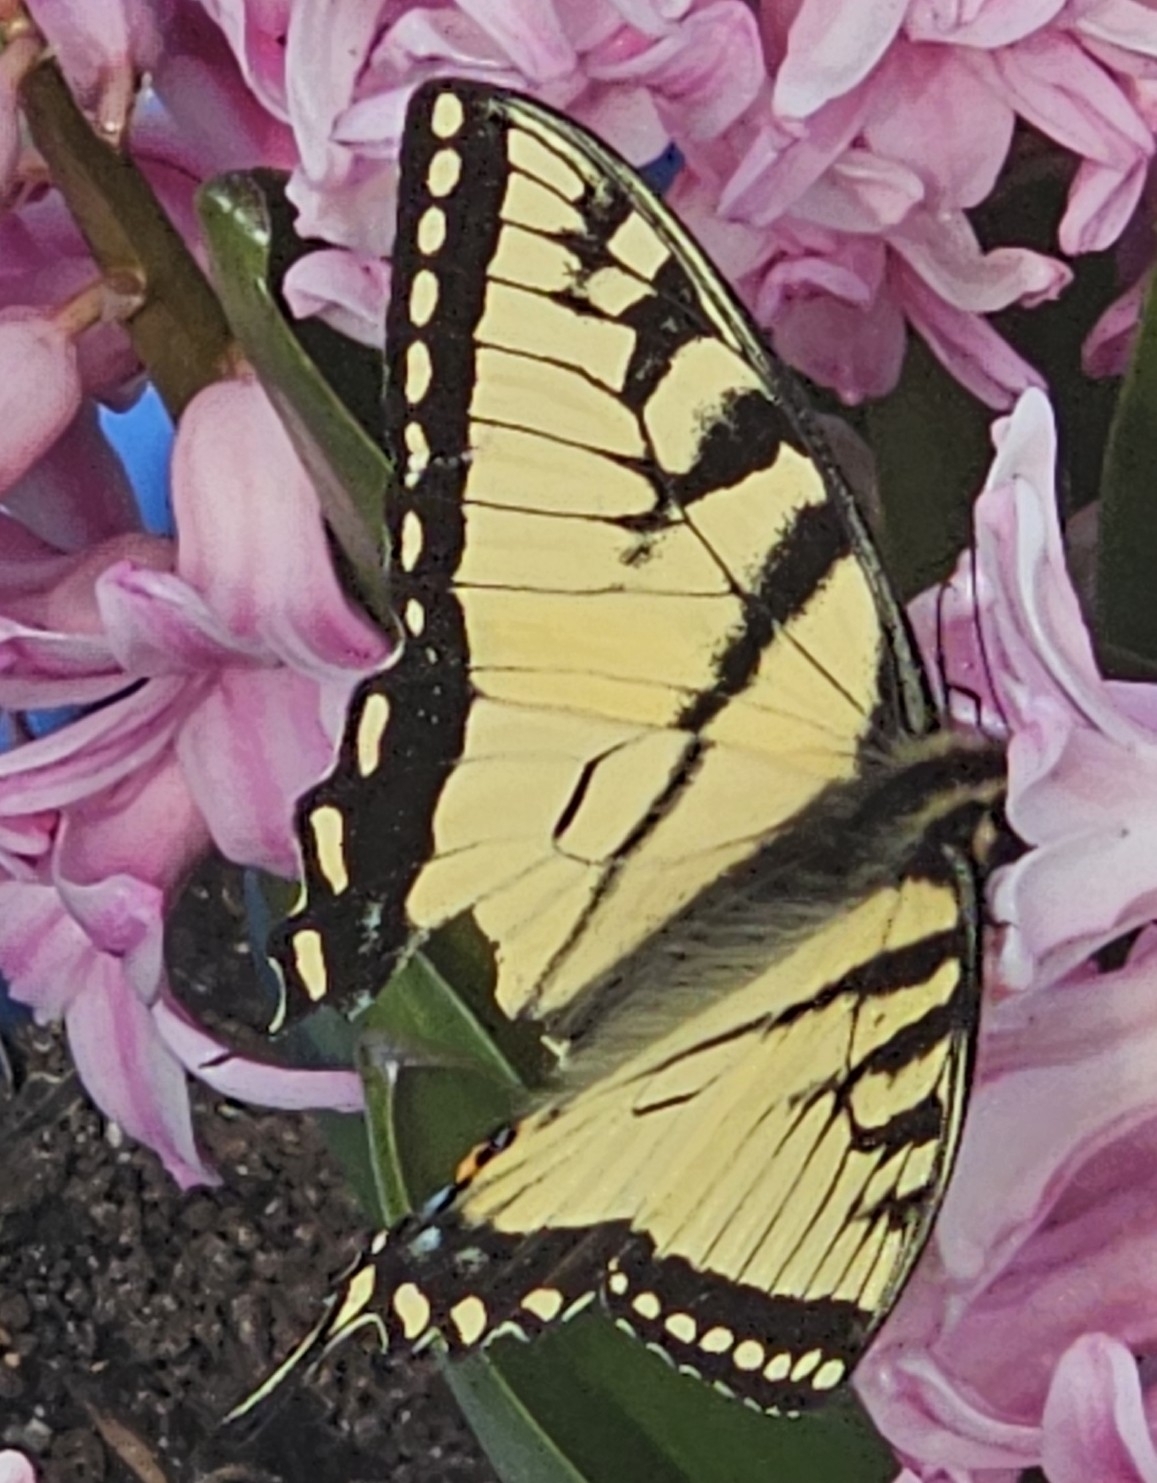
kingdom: Animalia
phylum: Arthropoda
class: Insecta
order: Lepidoptera
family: Papilionidae
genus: Papilio
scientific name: Papilio glaucus
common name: Tiger swallowtail
